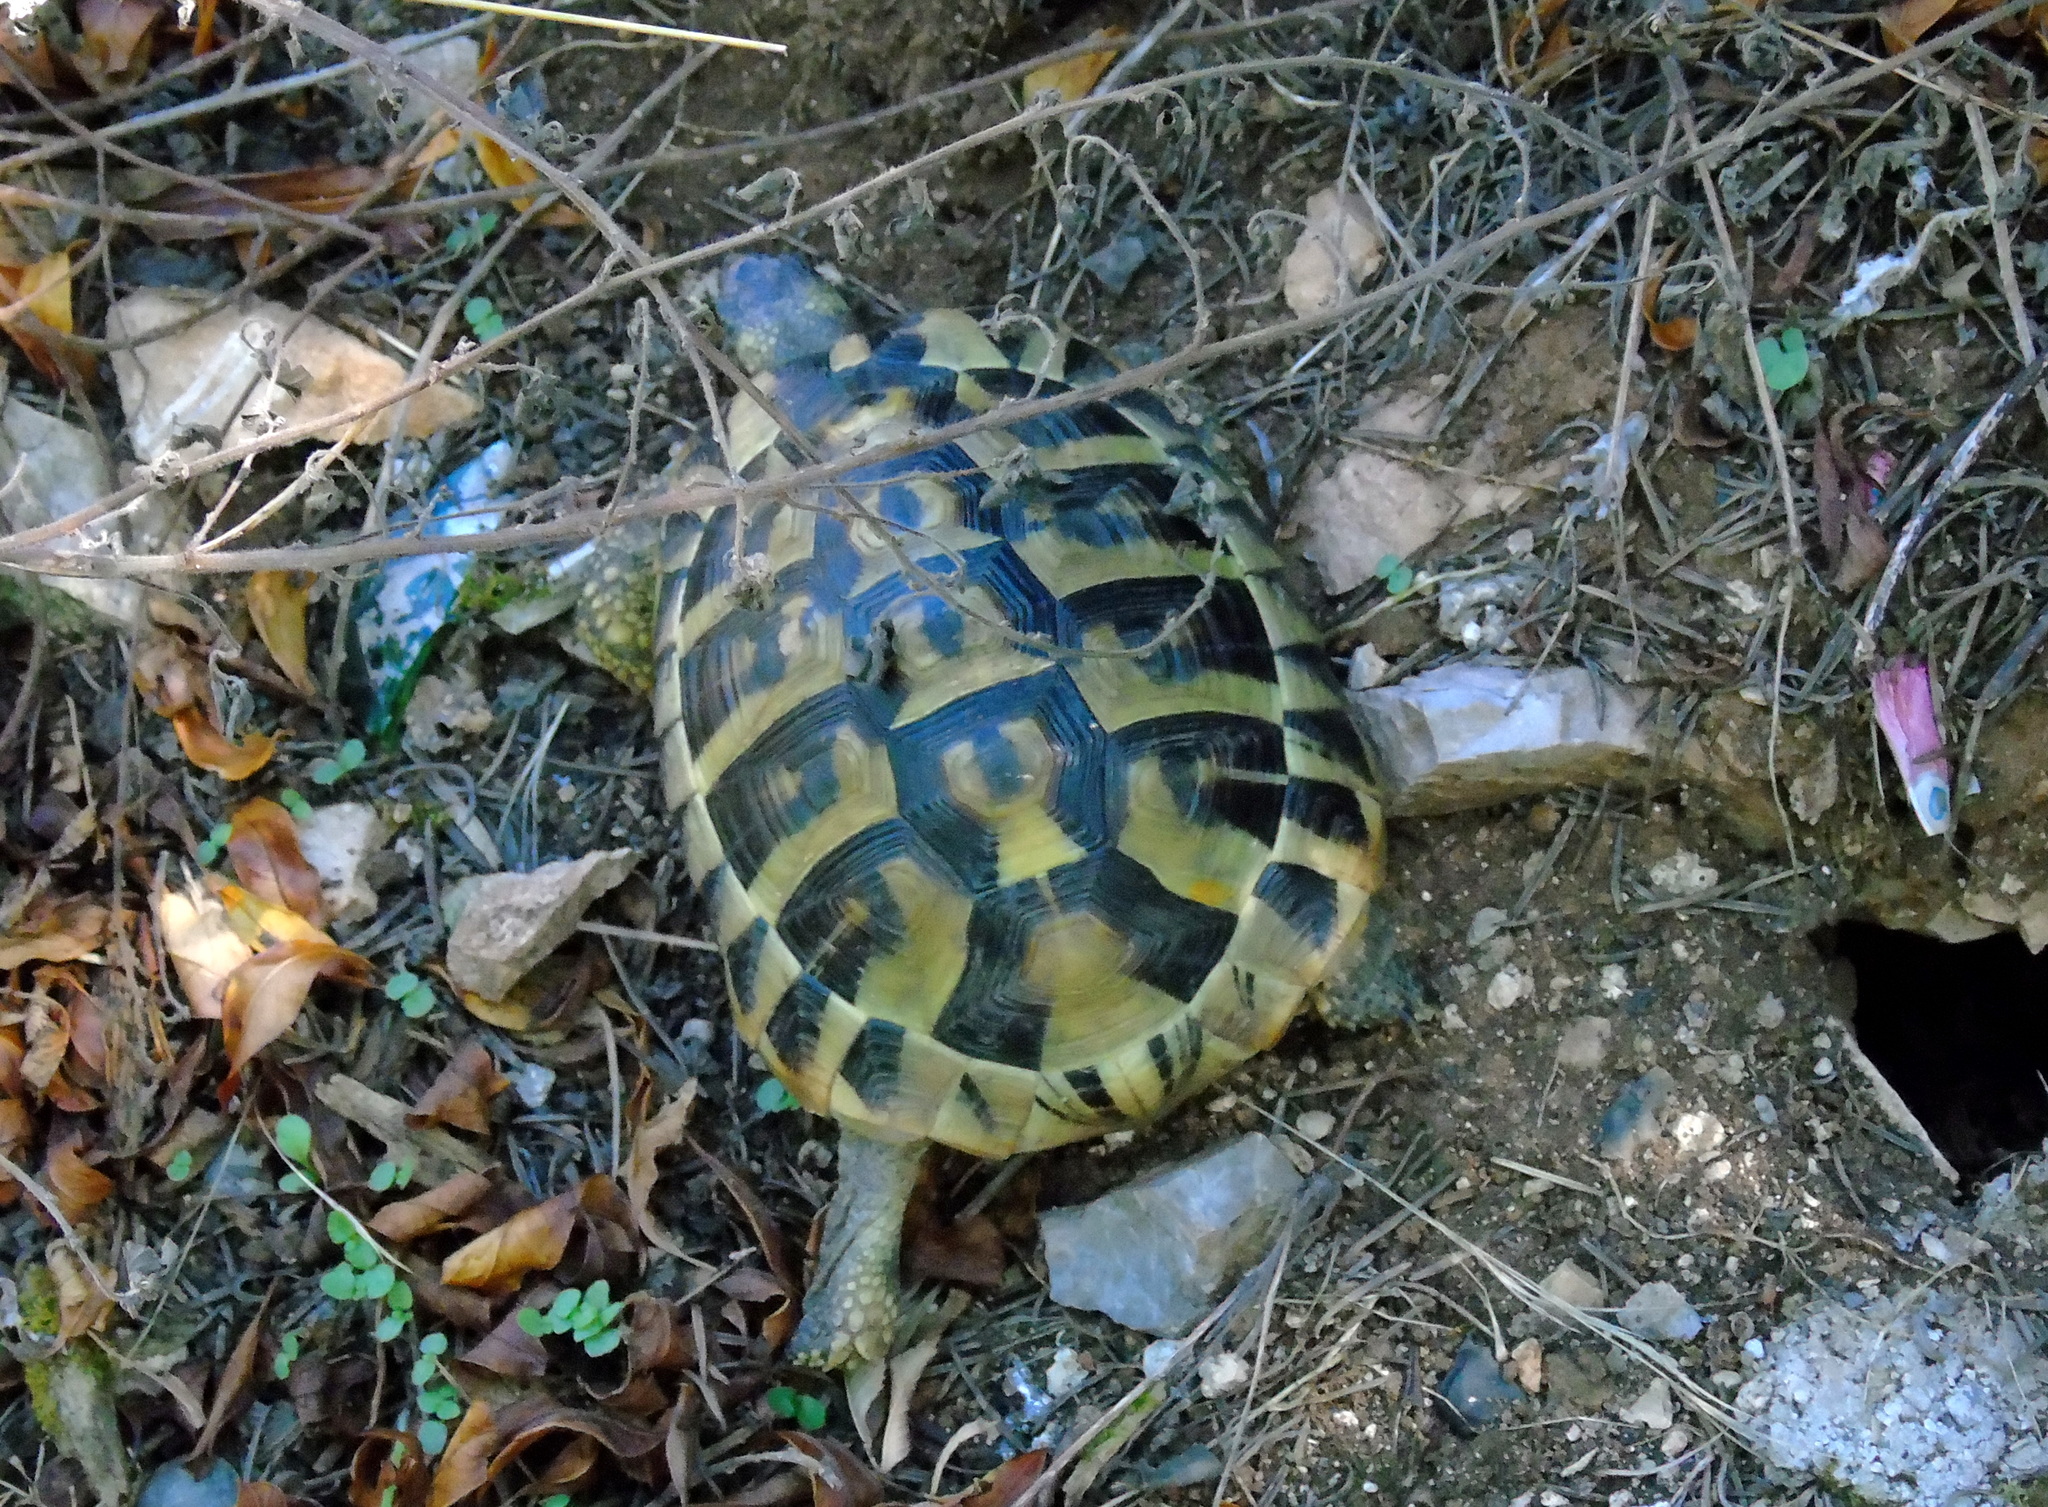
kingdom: Animalia
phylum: Chordata
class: Testudines
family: Testudinidae
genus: Testudo
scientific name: Testudo hermanni
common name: Hermann's tortoise
